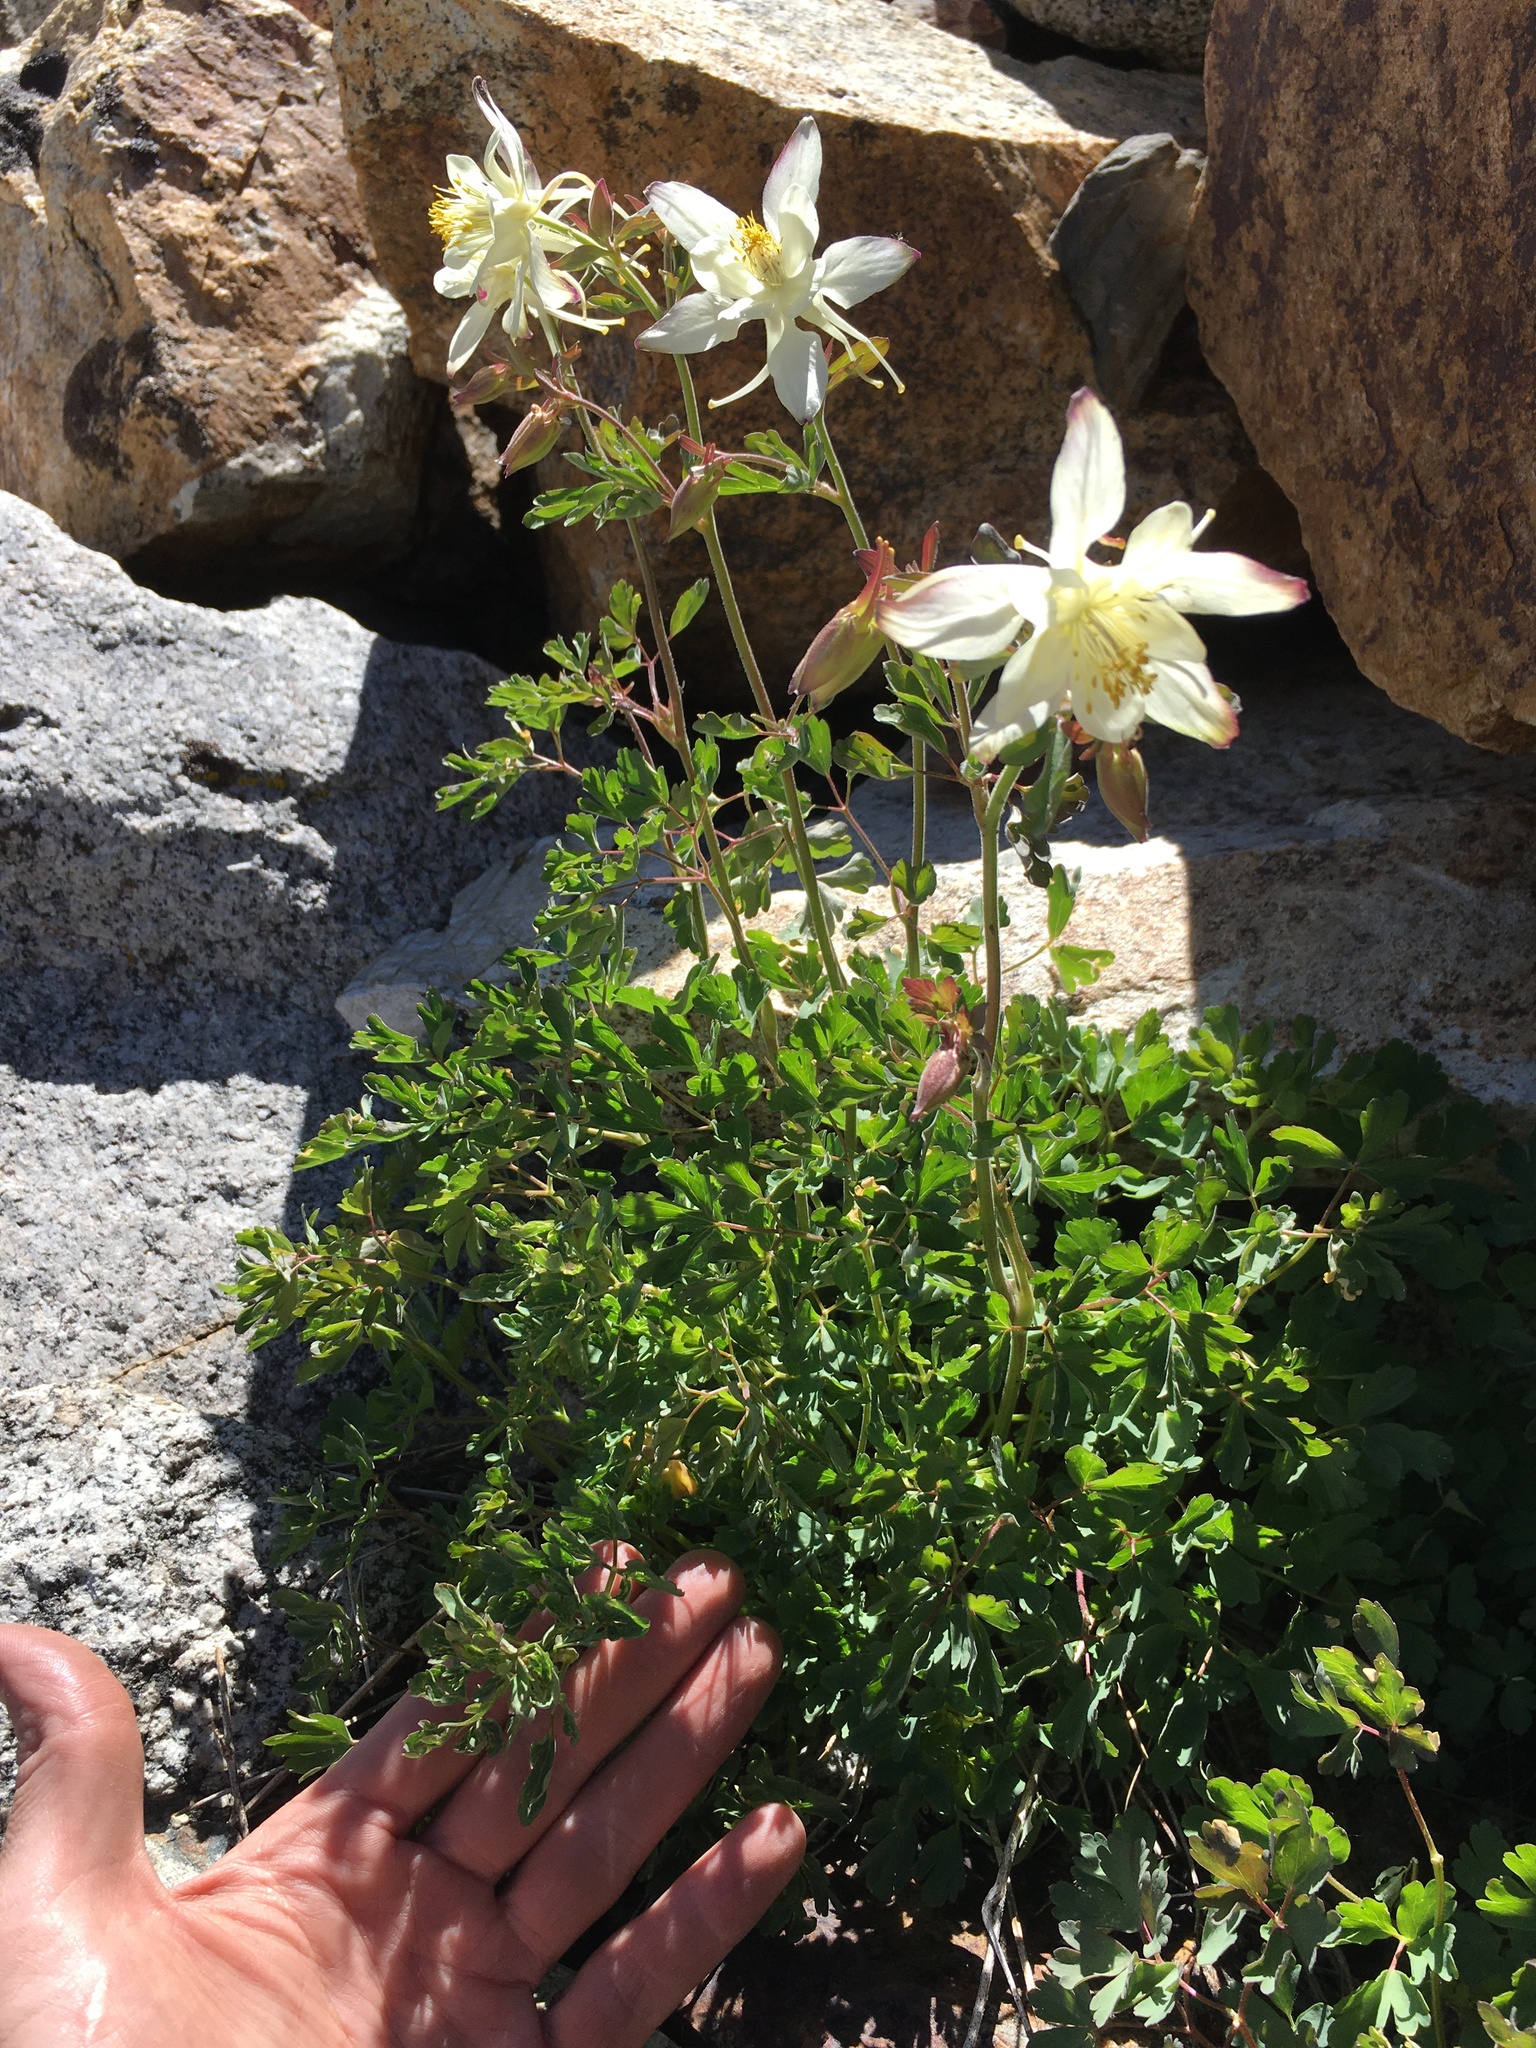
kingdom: Plantae
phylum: Tracheophyta
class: Magnoliopsida
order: Ranunculales
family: Ranunculaceae
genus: Aquilegia
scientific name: Aquilegia pubescens
